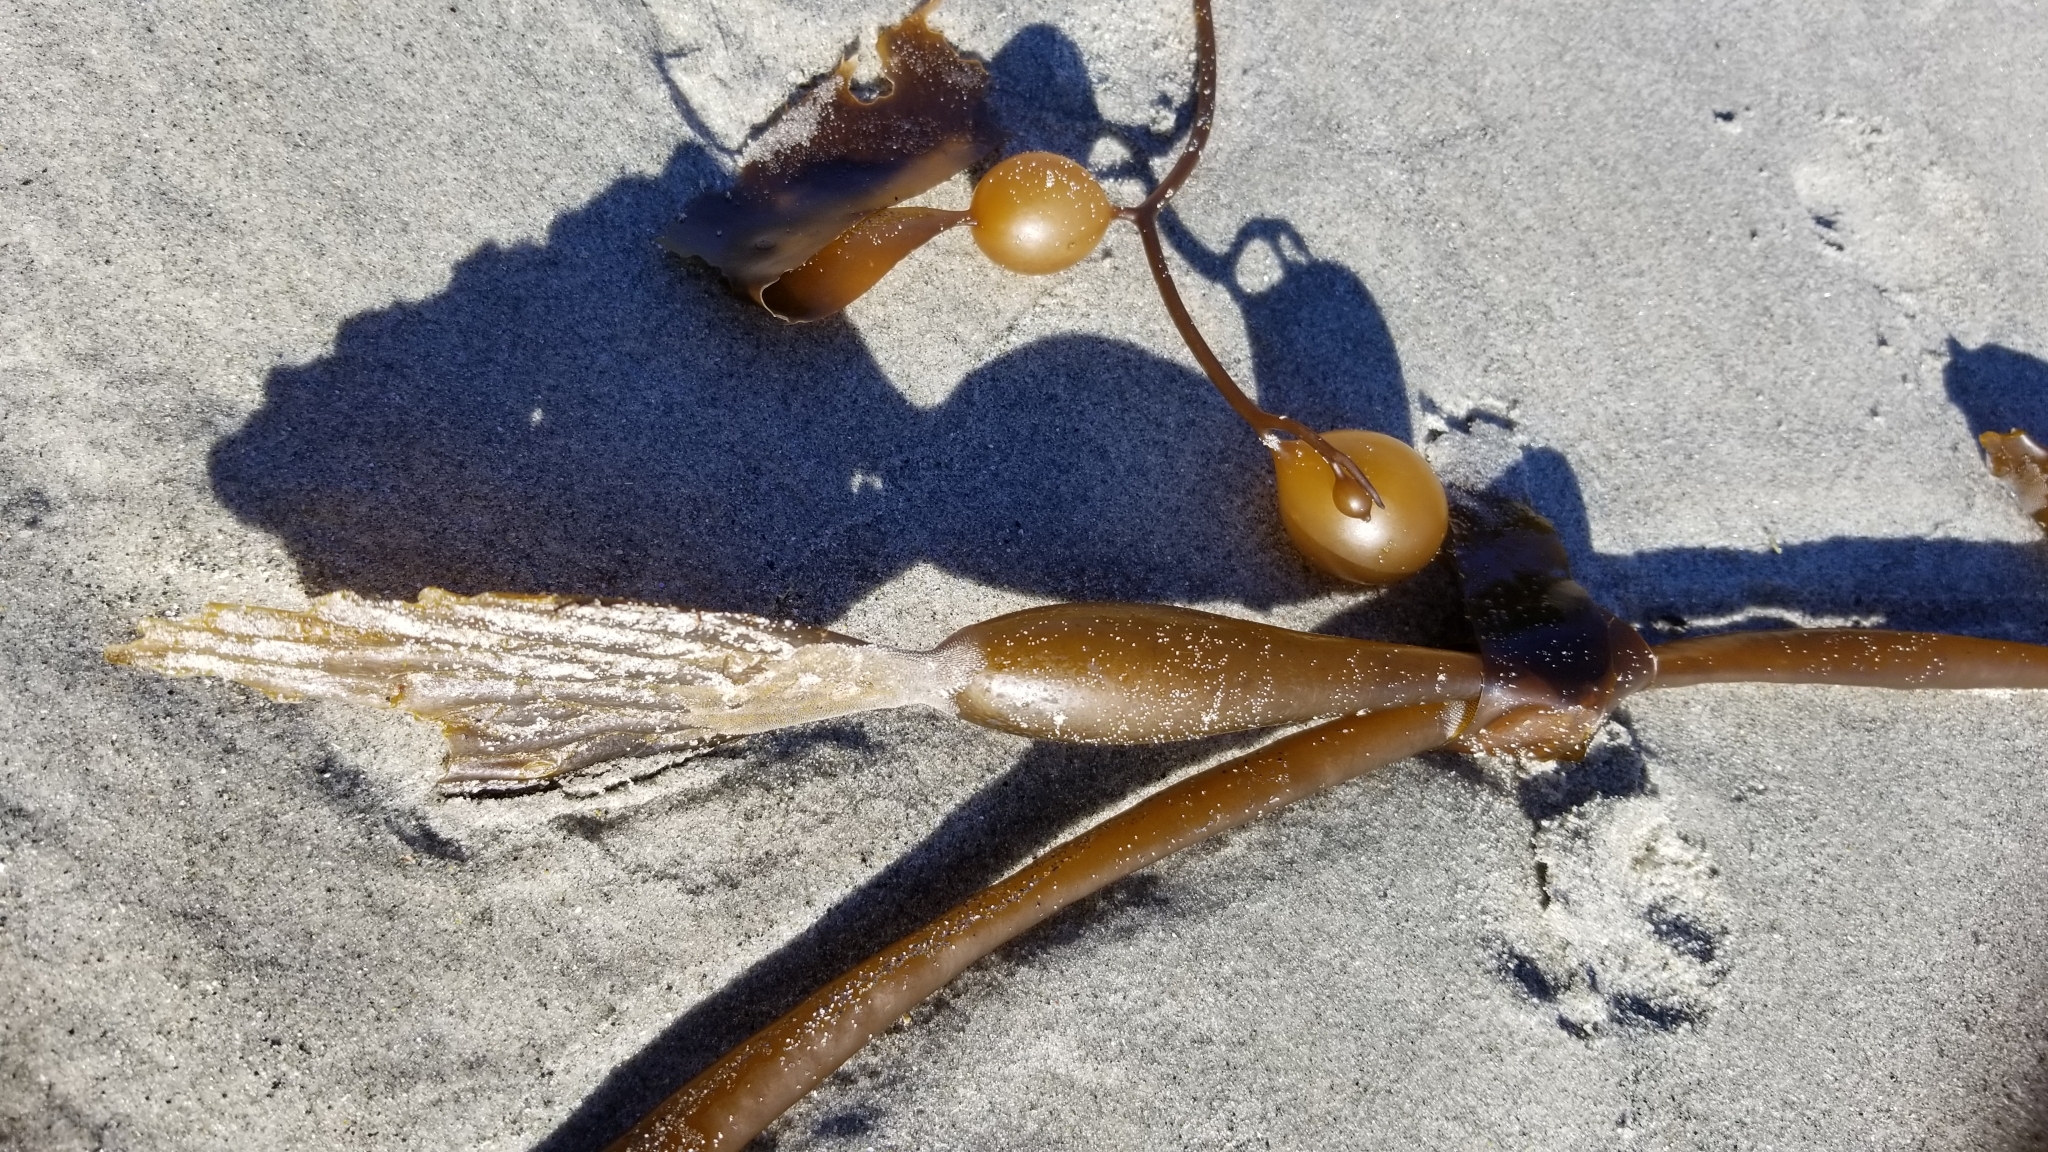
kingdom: Chromista
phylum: Ochrophyta
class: Phaeophyceae
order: Laminariales
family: Laminariaceae
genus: Macrocystis
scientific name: Macrocystis pyrifera
